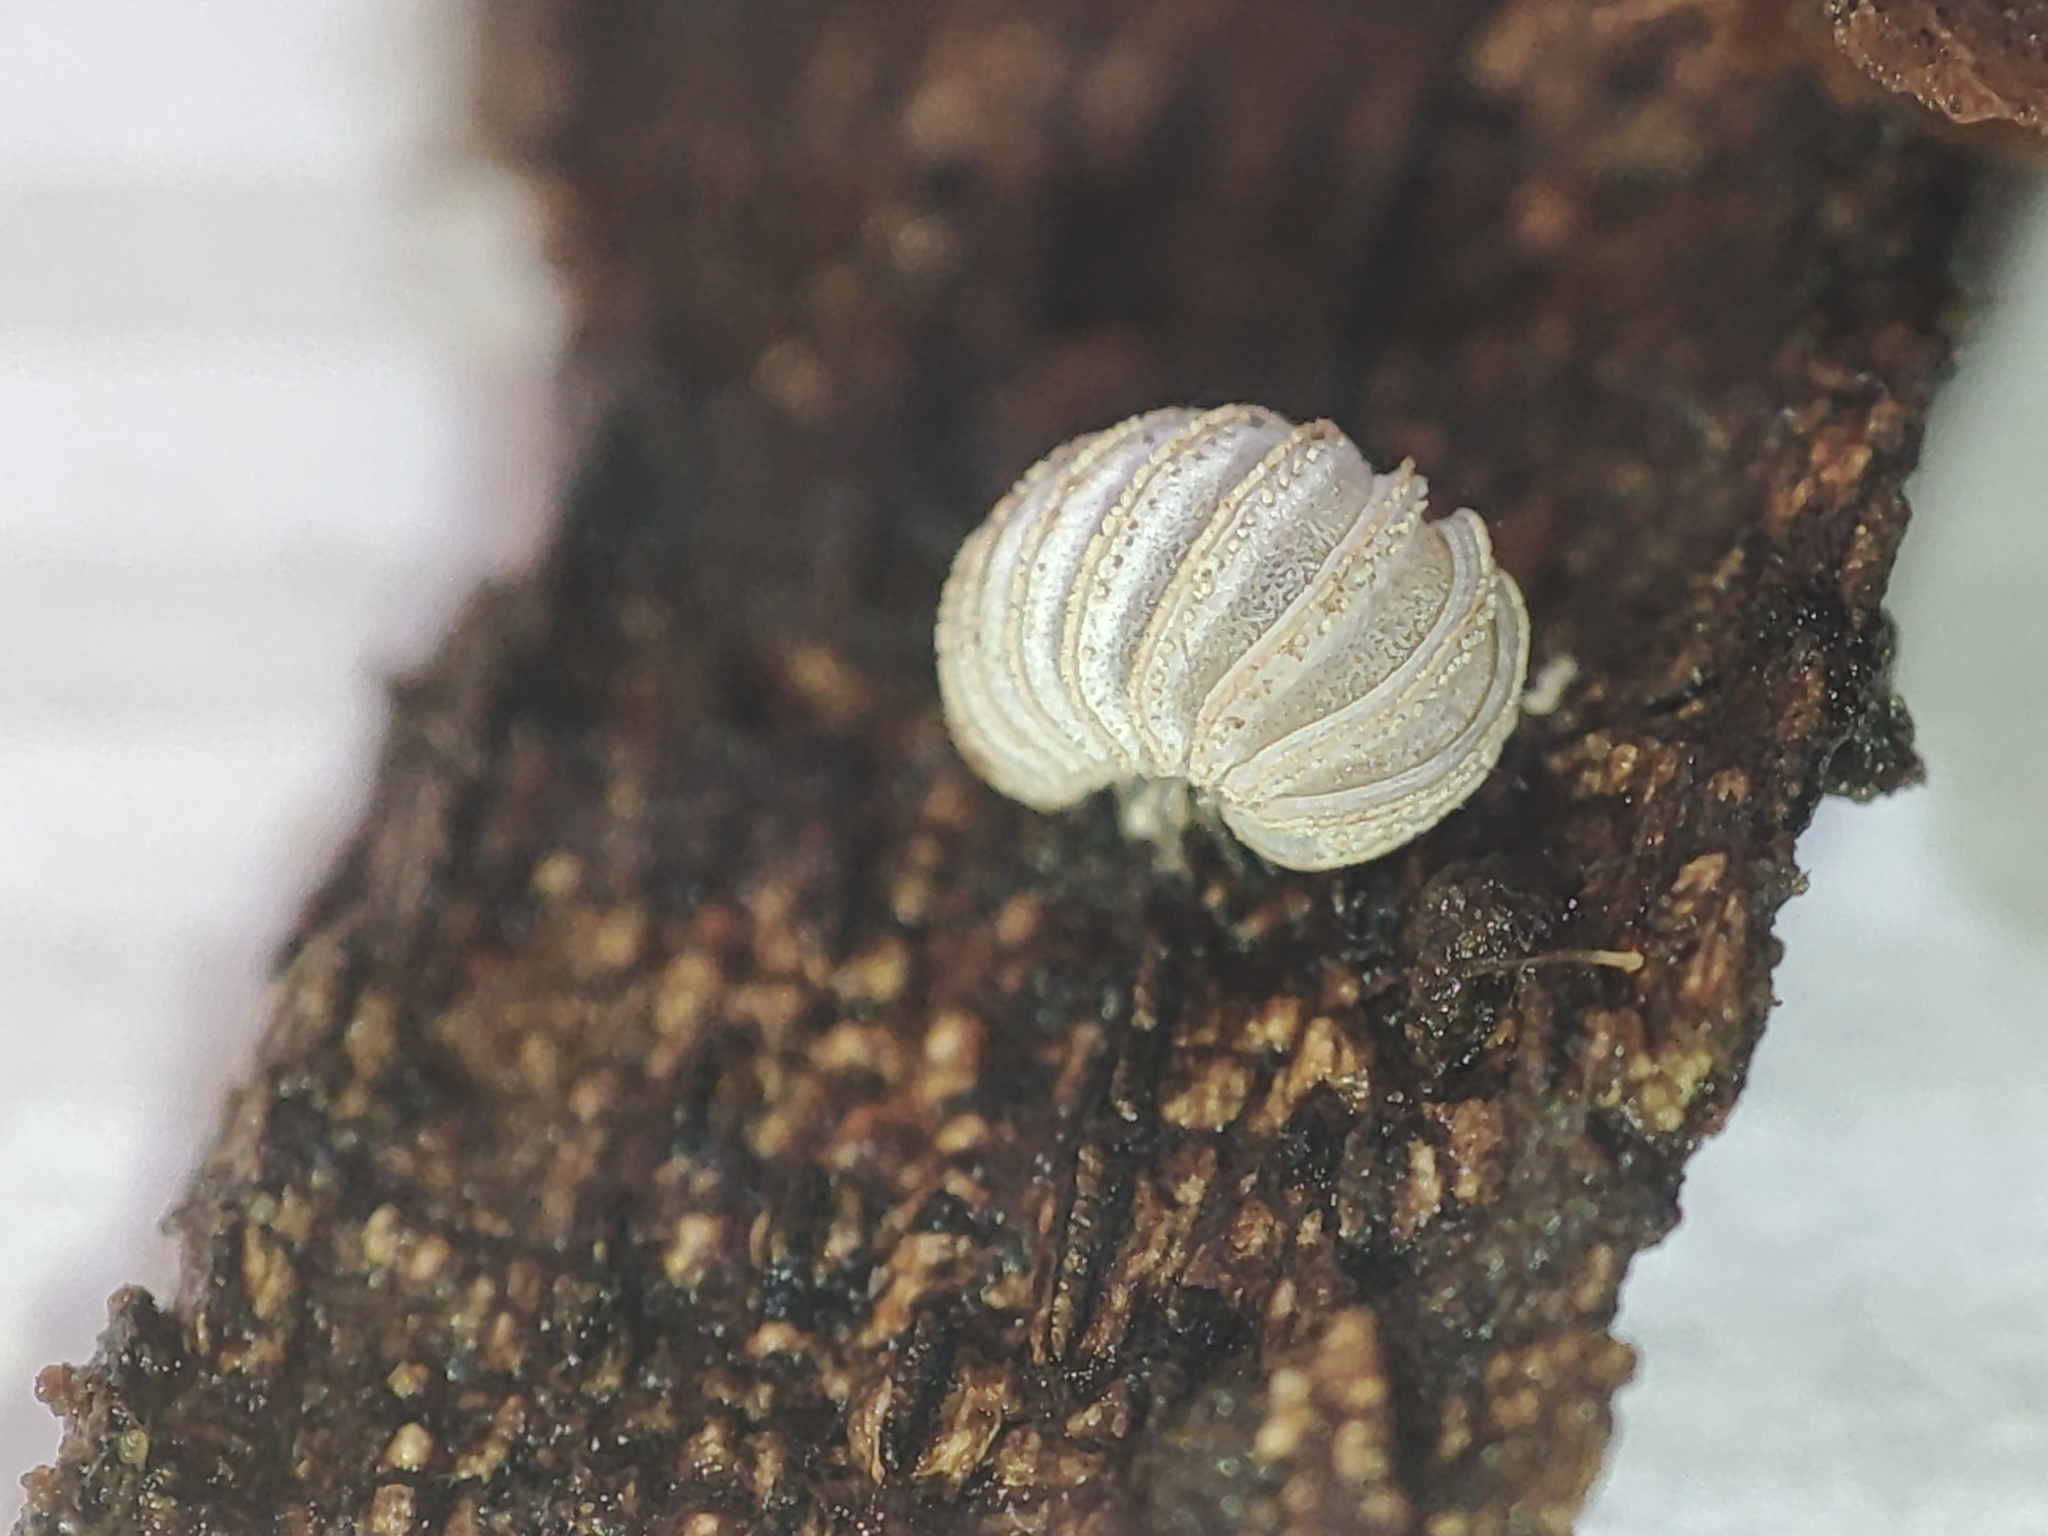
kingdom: Animalia
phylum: Arthropoda
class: Diplopoda
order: Glomerida
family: Glomeridae
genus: Trachysphaera
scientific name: Trachysphaera costata
